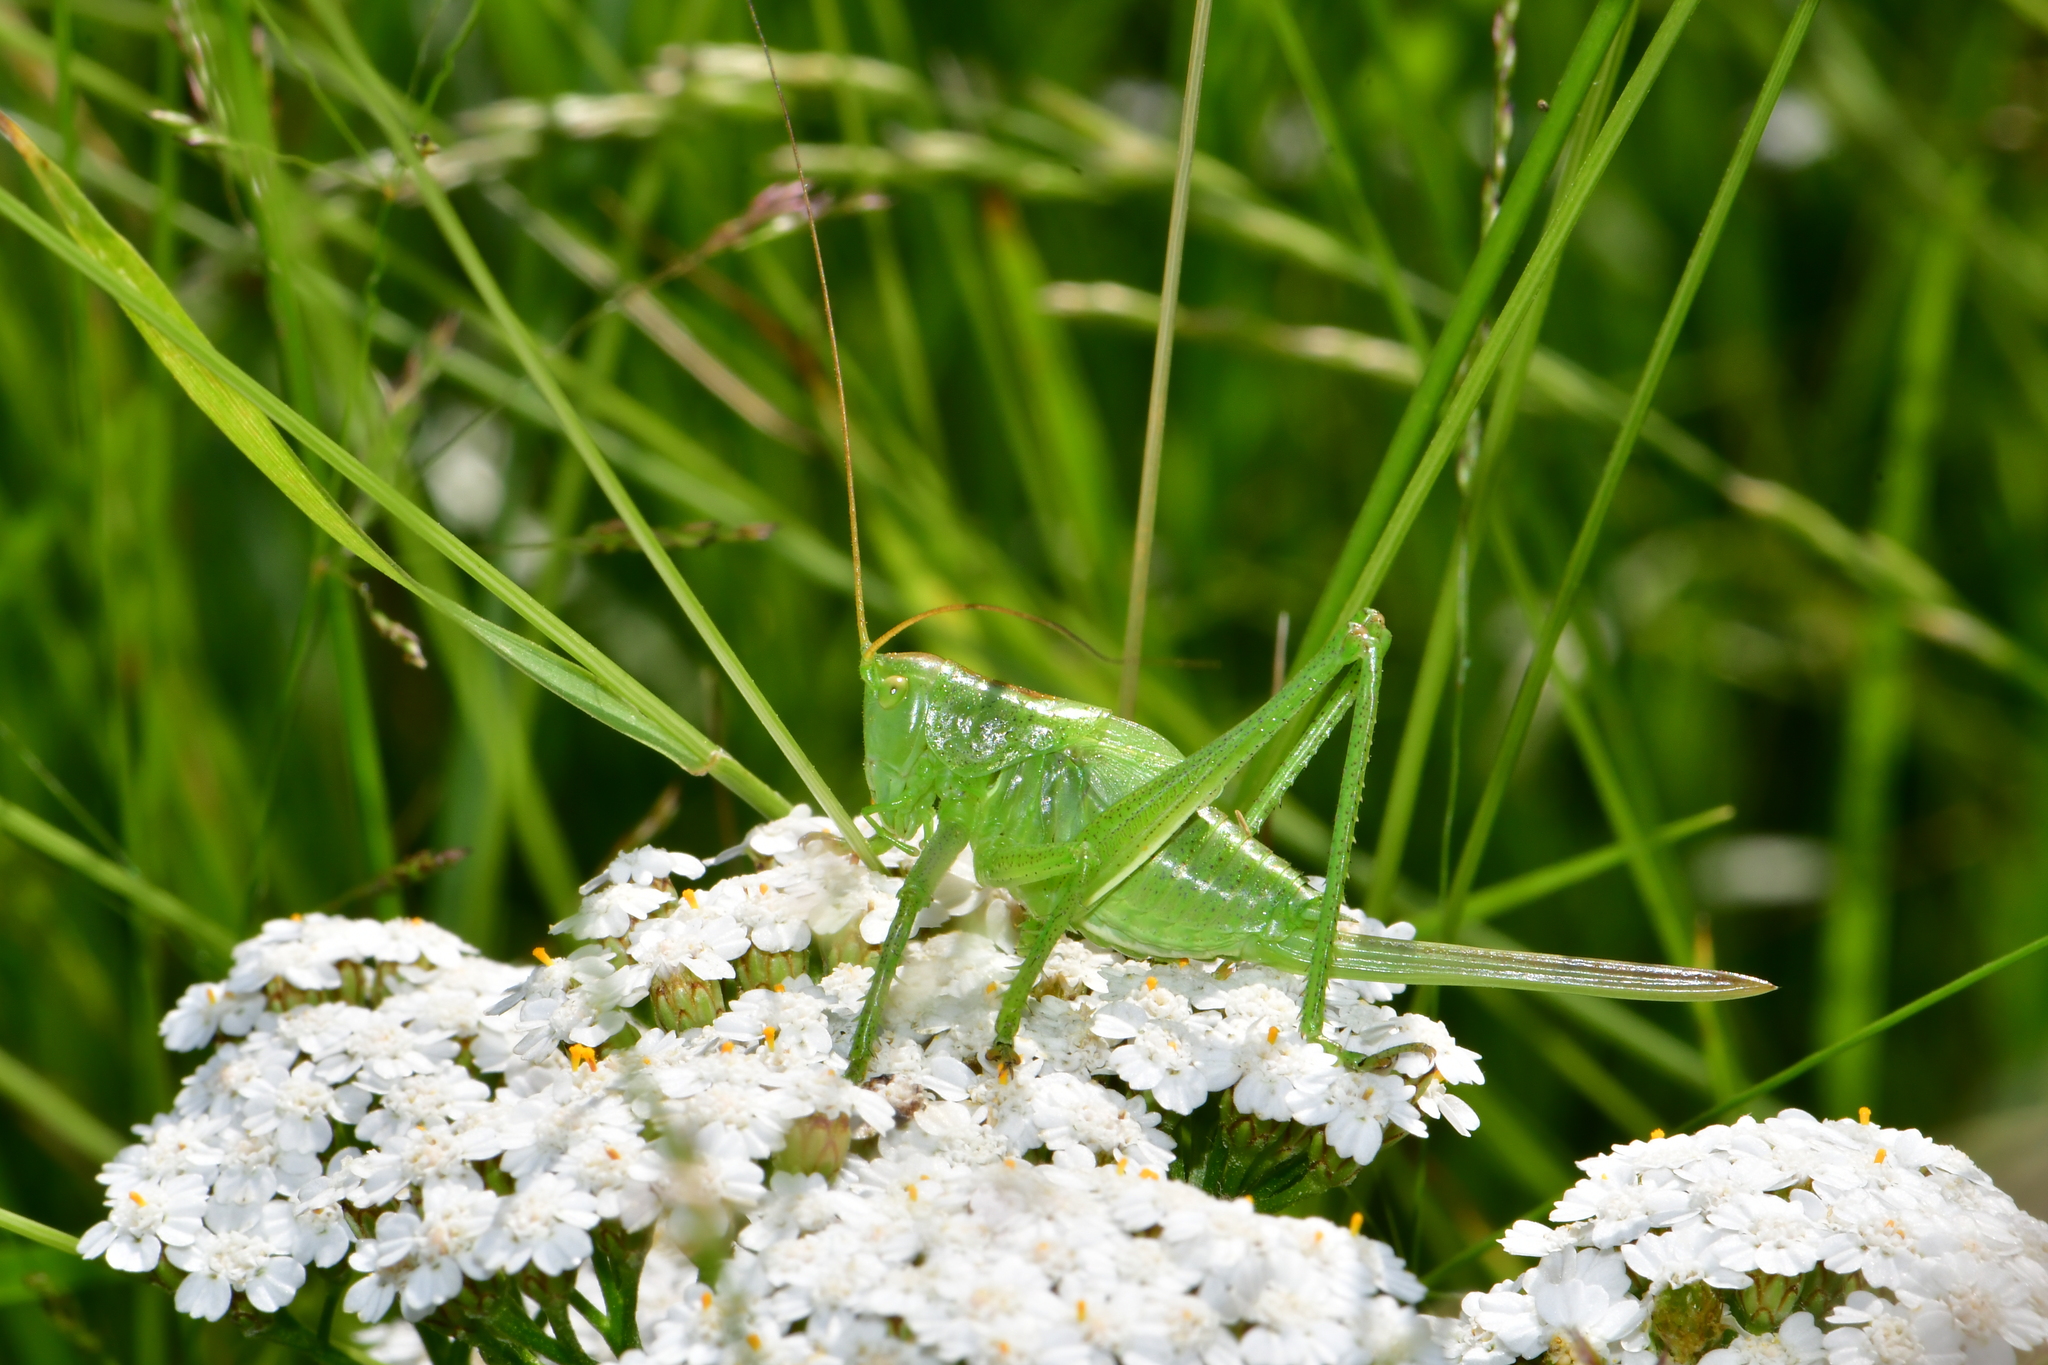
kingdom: Animalia
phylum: Arthropoda
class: Insecta
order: Orthoptera
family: Tettigoniidae
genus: Tettigonia
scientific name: Tettigonia cantans
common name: Upland green bush-cricket
